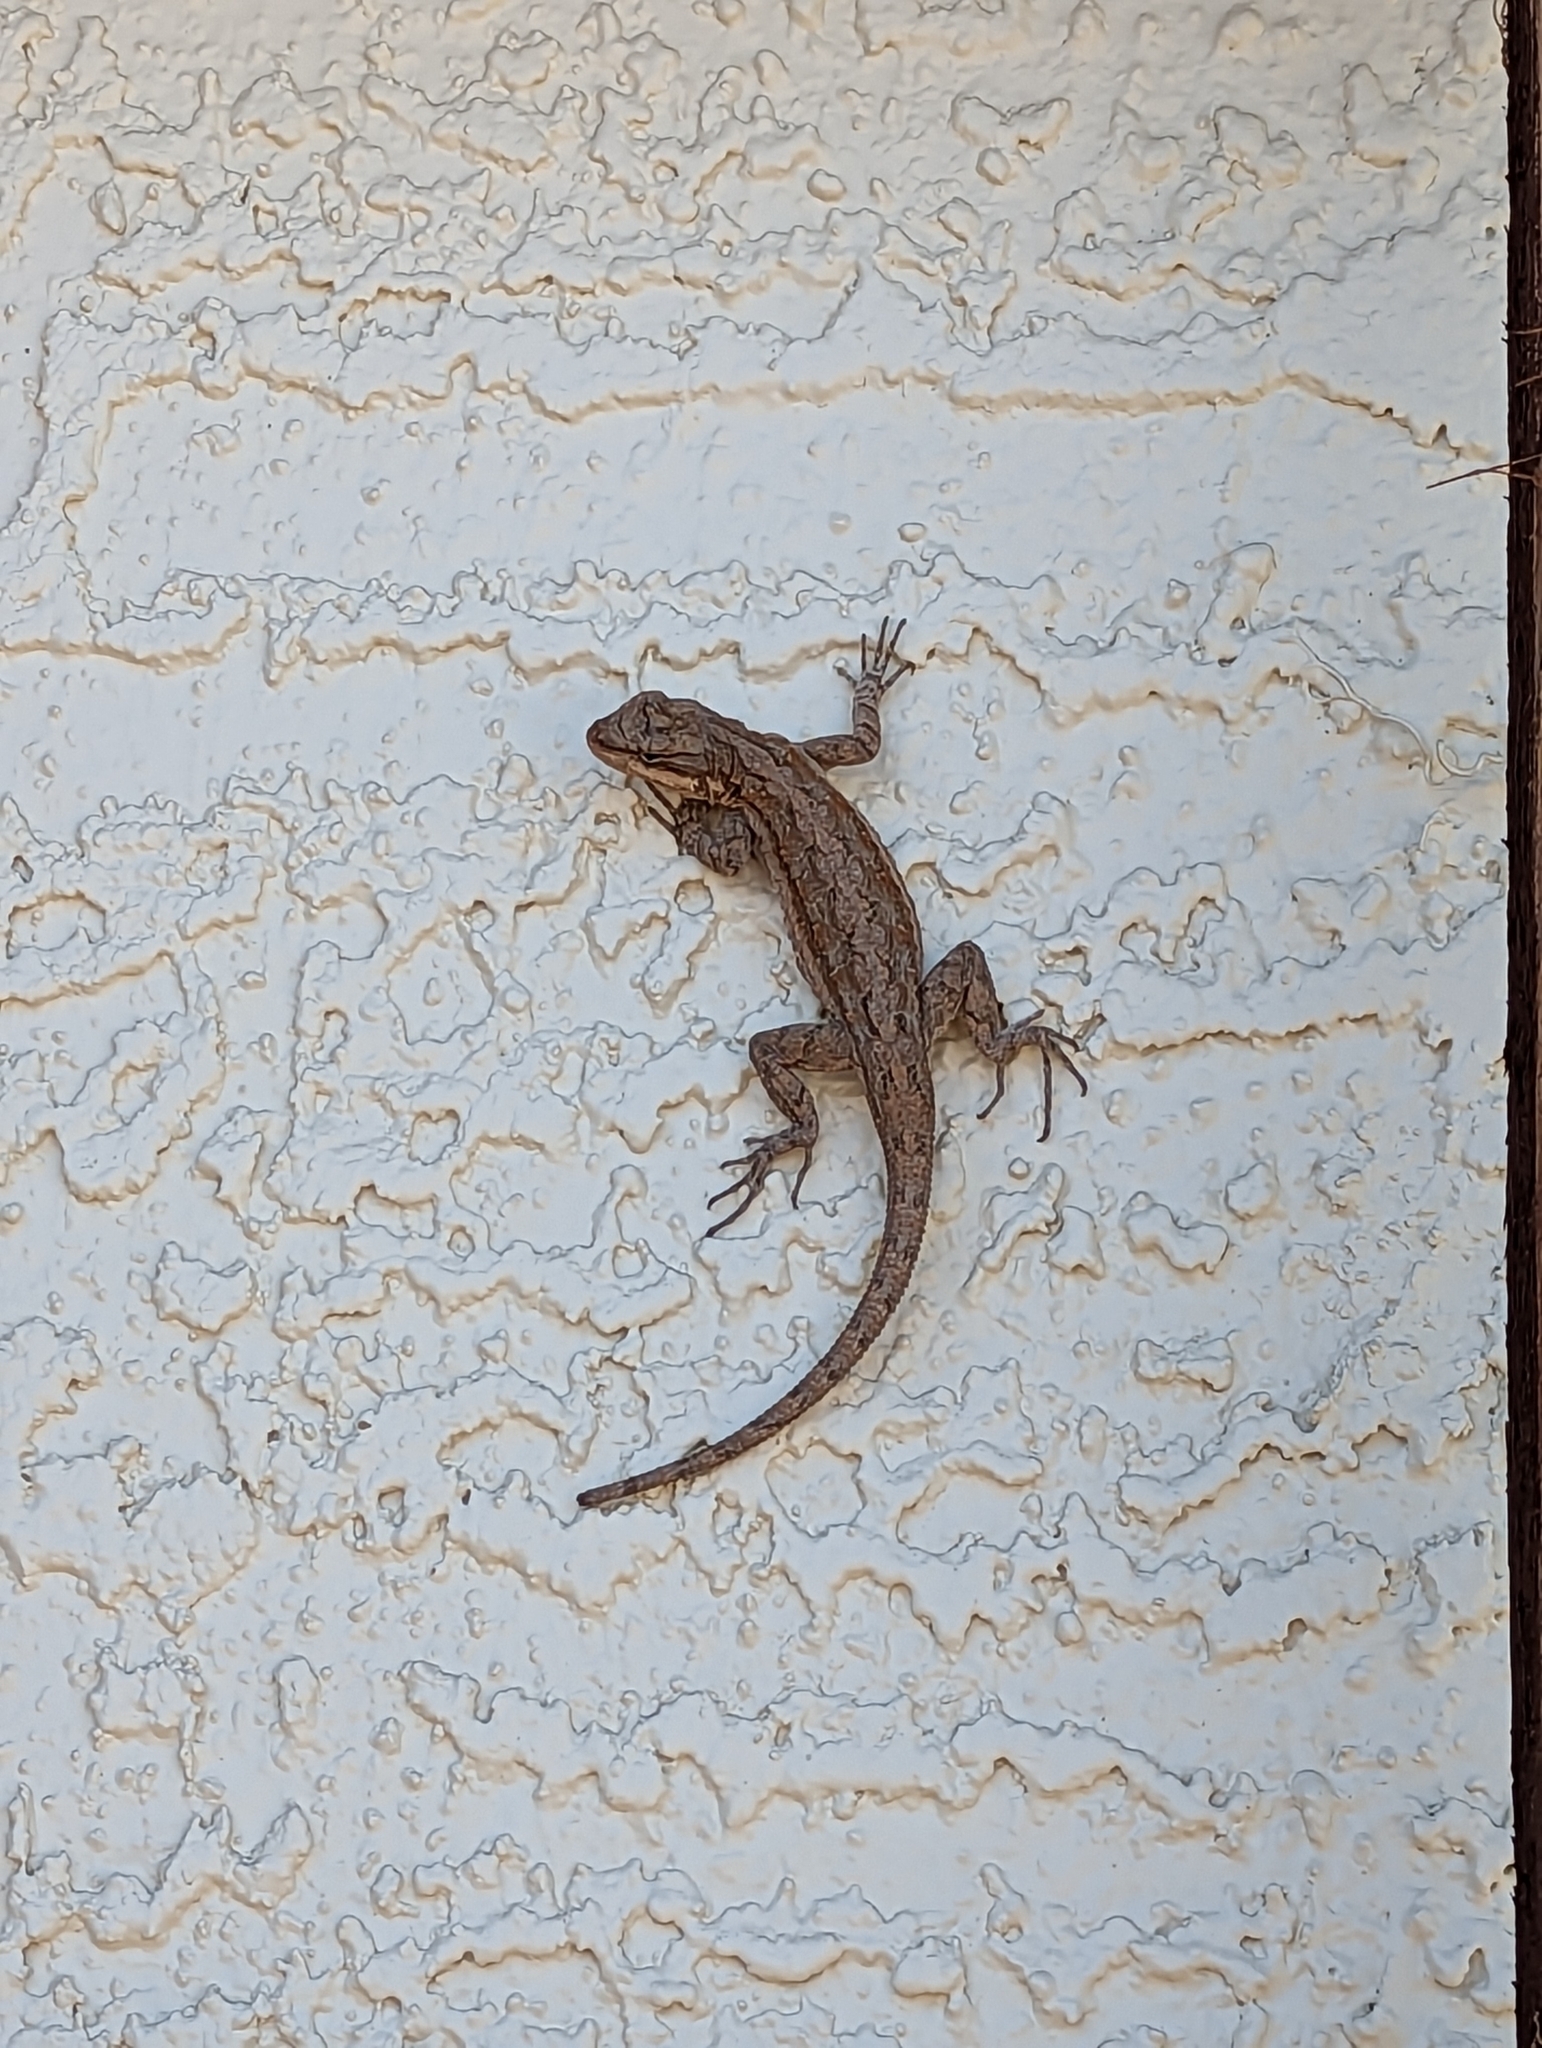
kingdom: Animalia
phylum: Chordata
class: Squamata
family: Phrynosomatidae
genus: Urosaurus
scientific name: Urosaurus ornatus
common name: Ornate tree lizard
